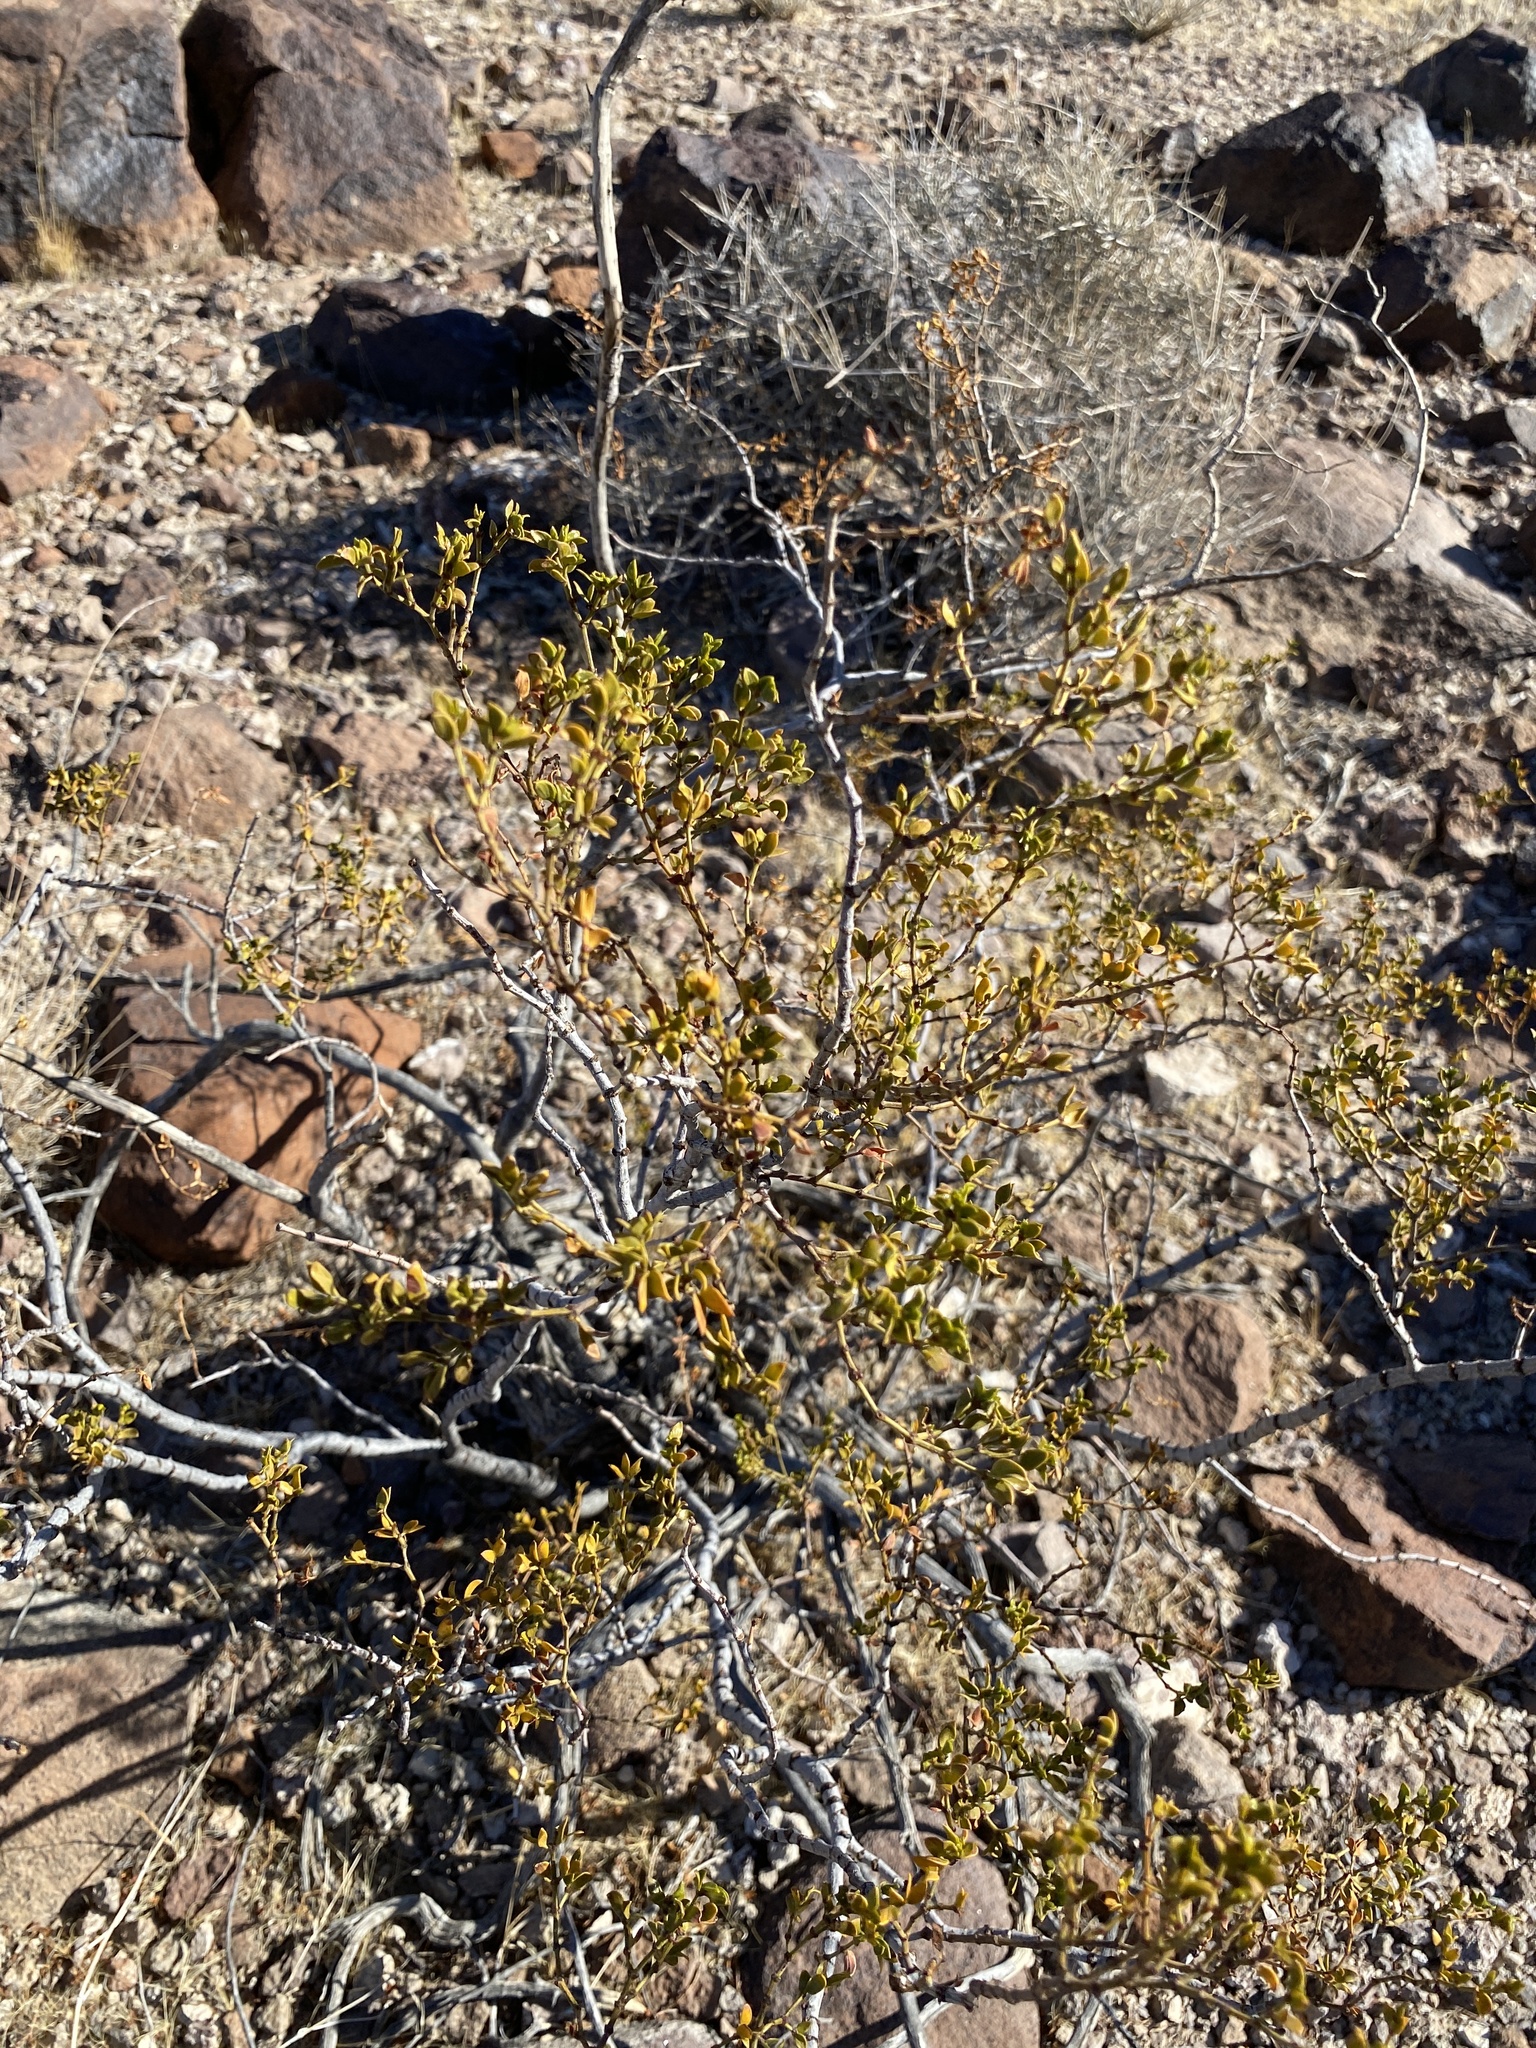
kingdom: Plantae
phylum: Tracheophyta
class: Magnoliopsida
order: Zygophyllales
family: Zygophyllaceae
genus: Larrea
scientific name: Larrea tridentata
